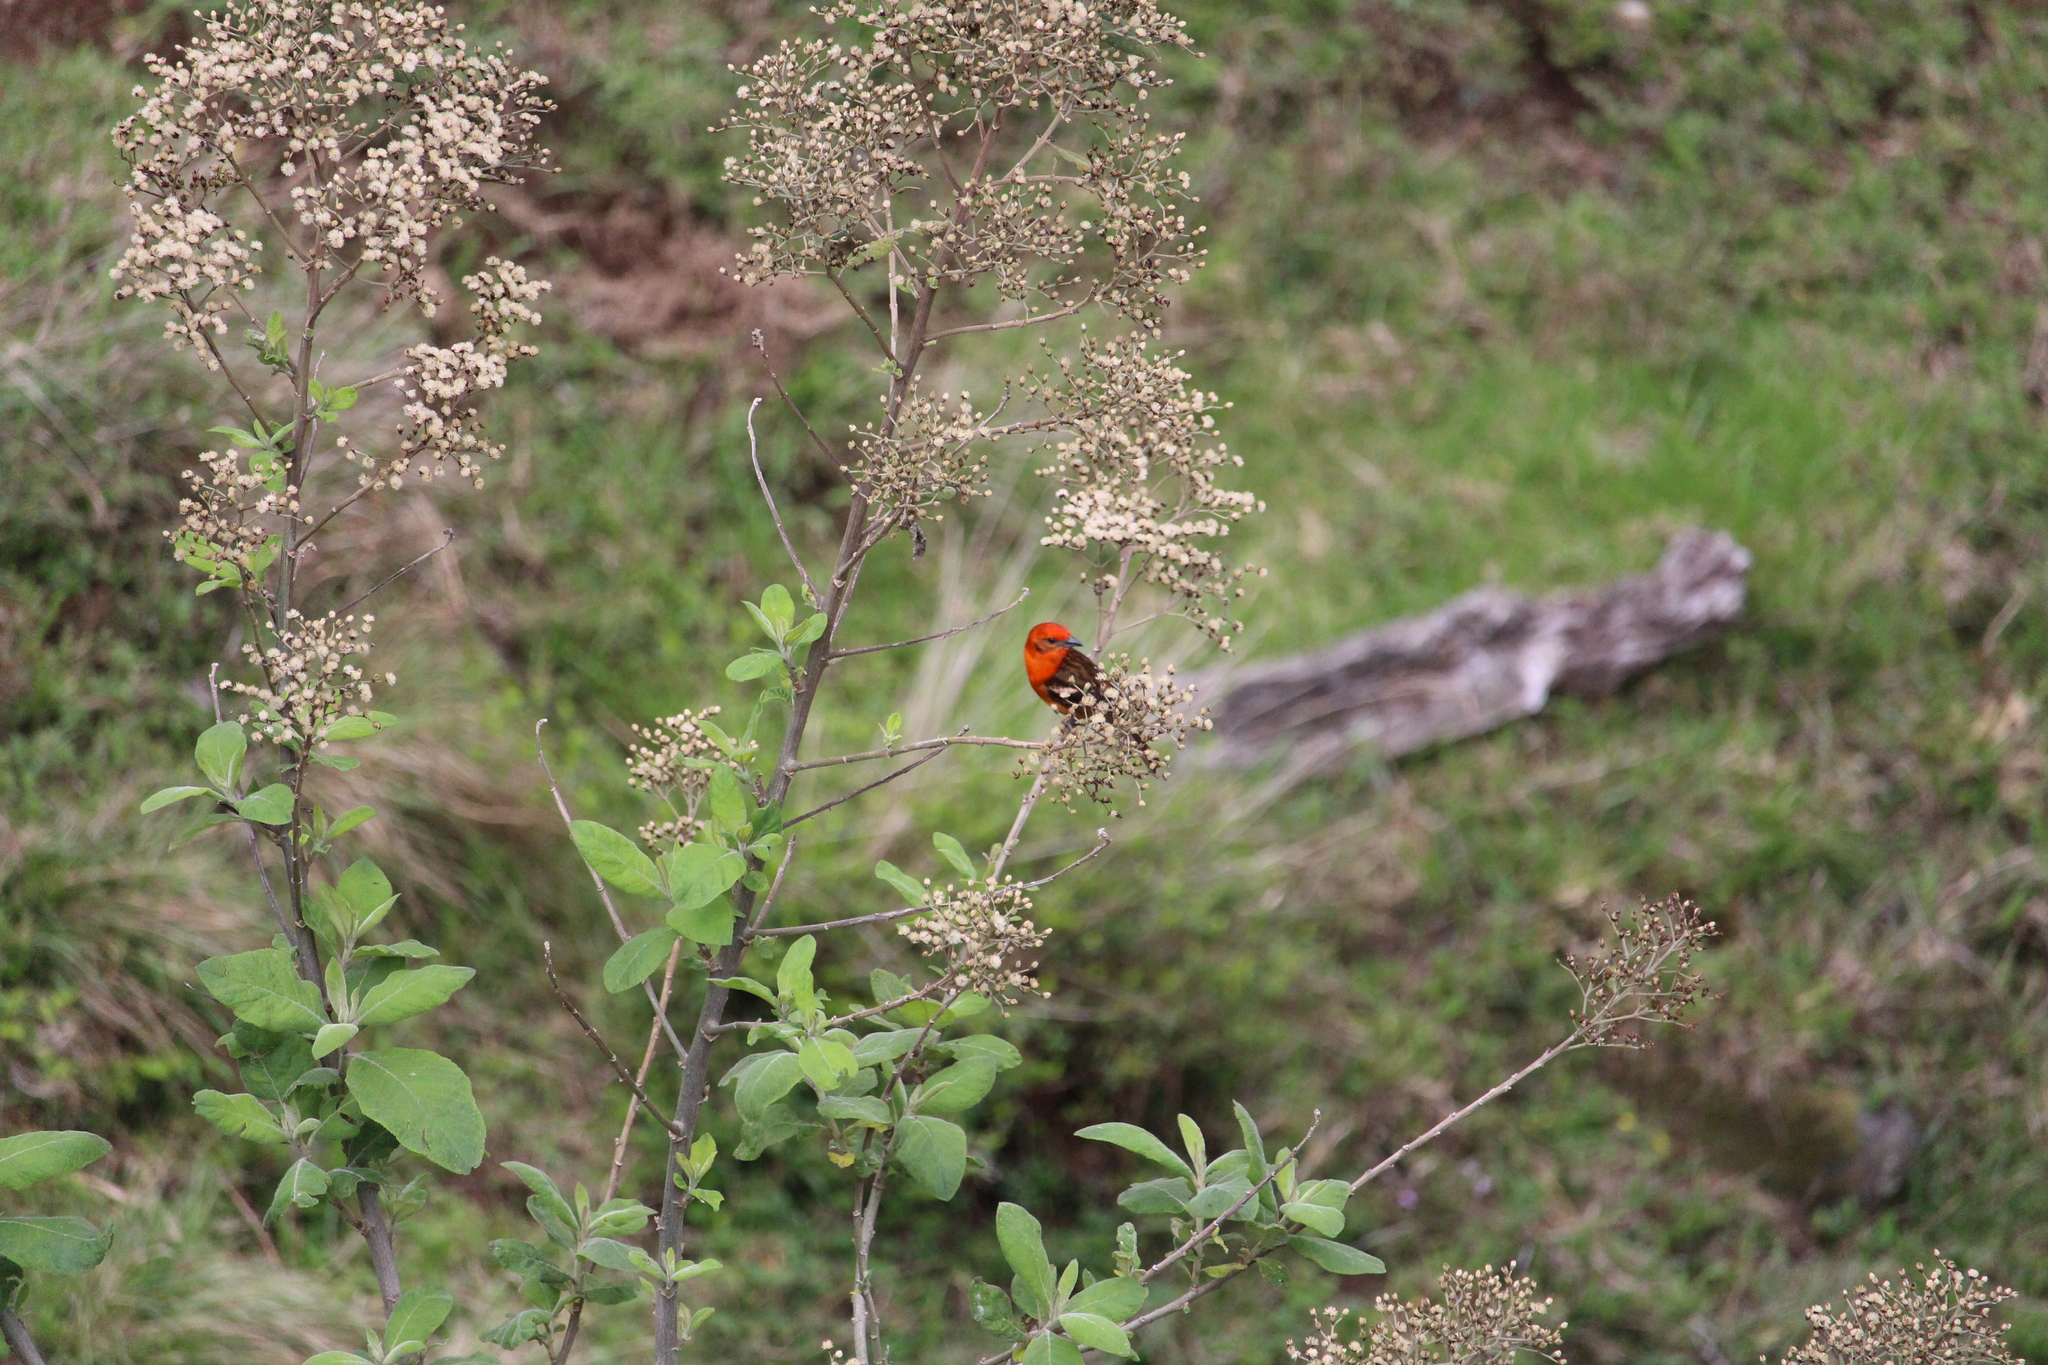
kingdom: Animalia
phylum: Chordata
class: Aves
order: Passeriformes
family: Cardinalidae
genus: Piranga
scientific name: Piranga bidentata
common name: Flame-colored tanager
